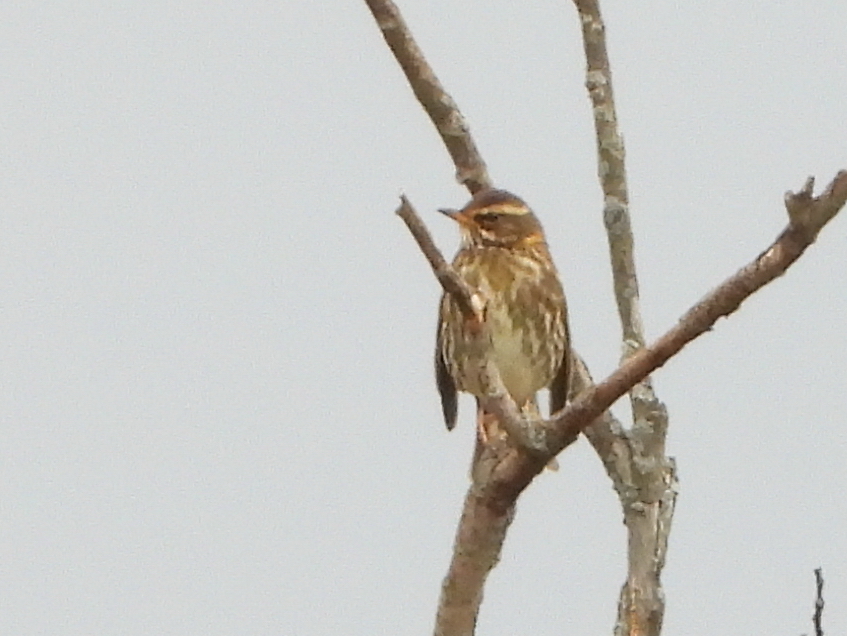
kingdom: Animalia
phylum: Chordata
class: Aves
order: Passeriformes
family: Turdidae
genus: Turdus
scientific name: Turdus iliacus
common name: Redwing
